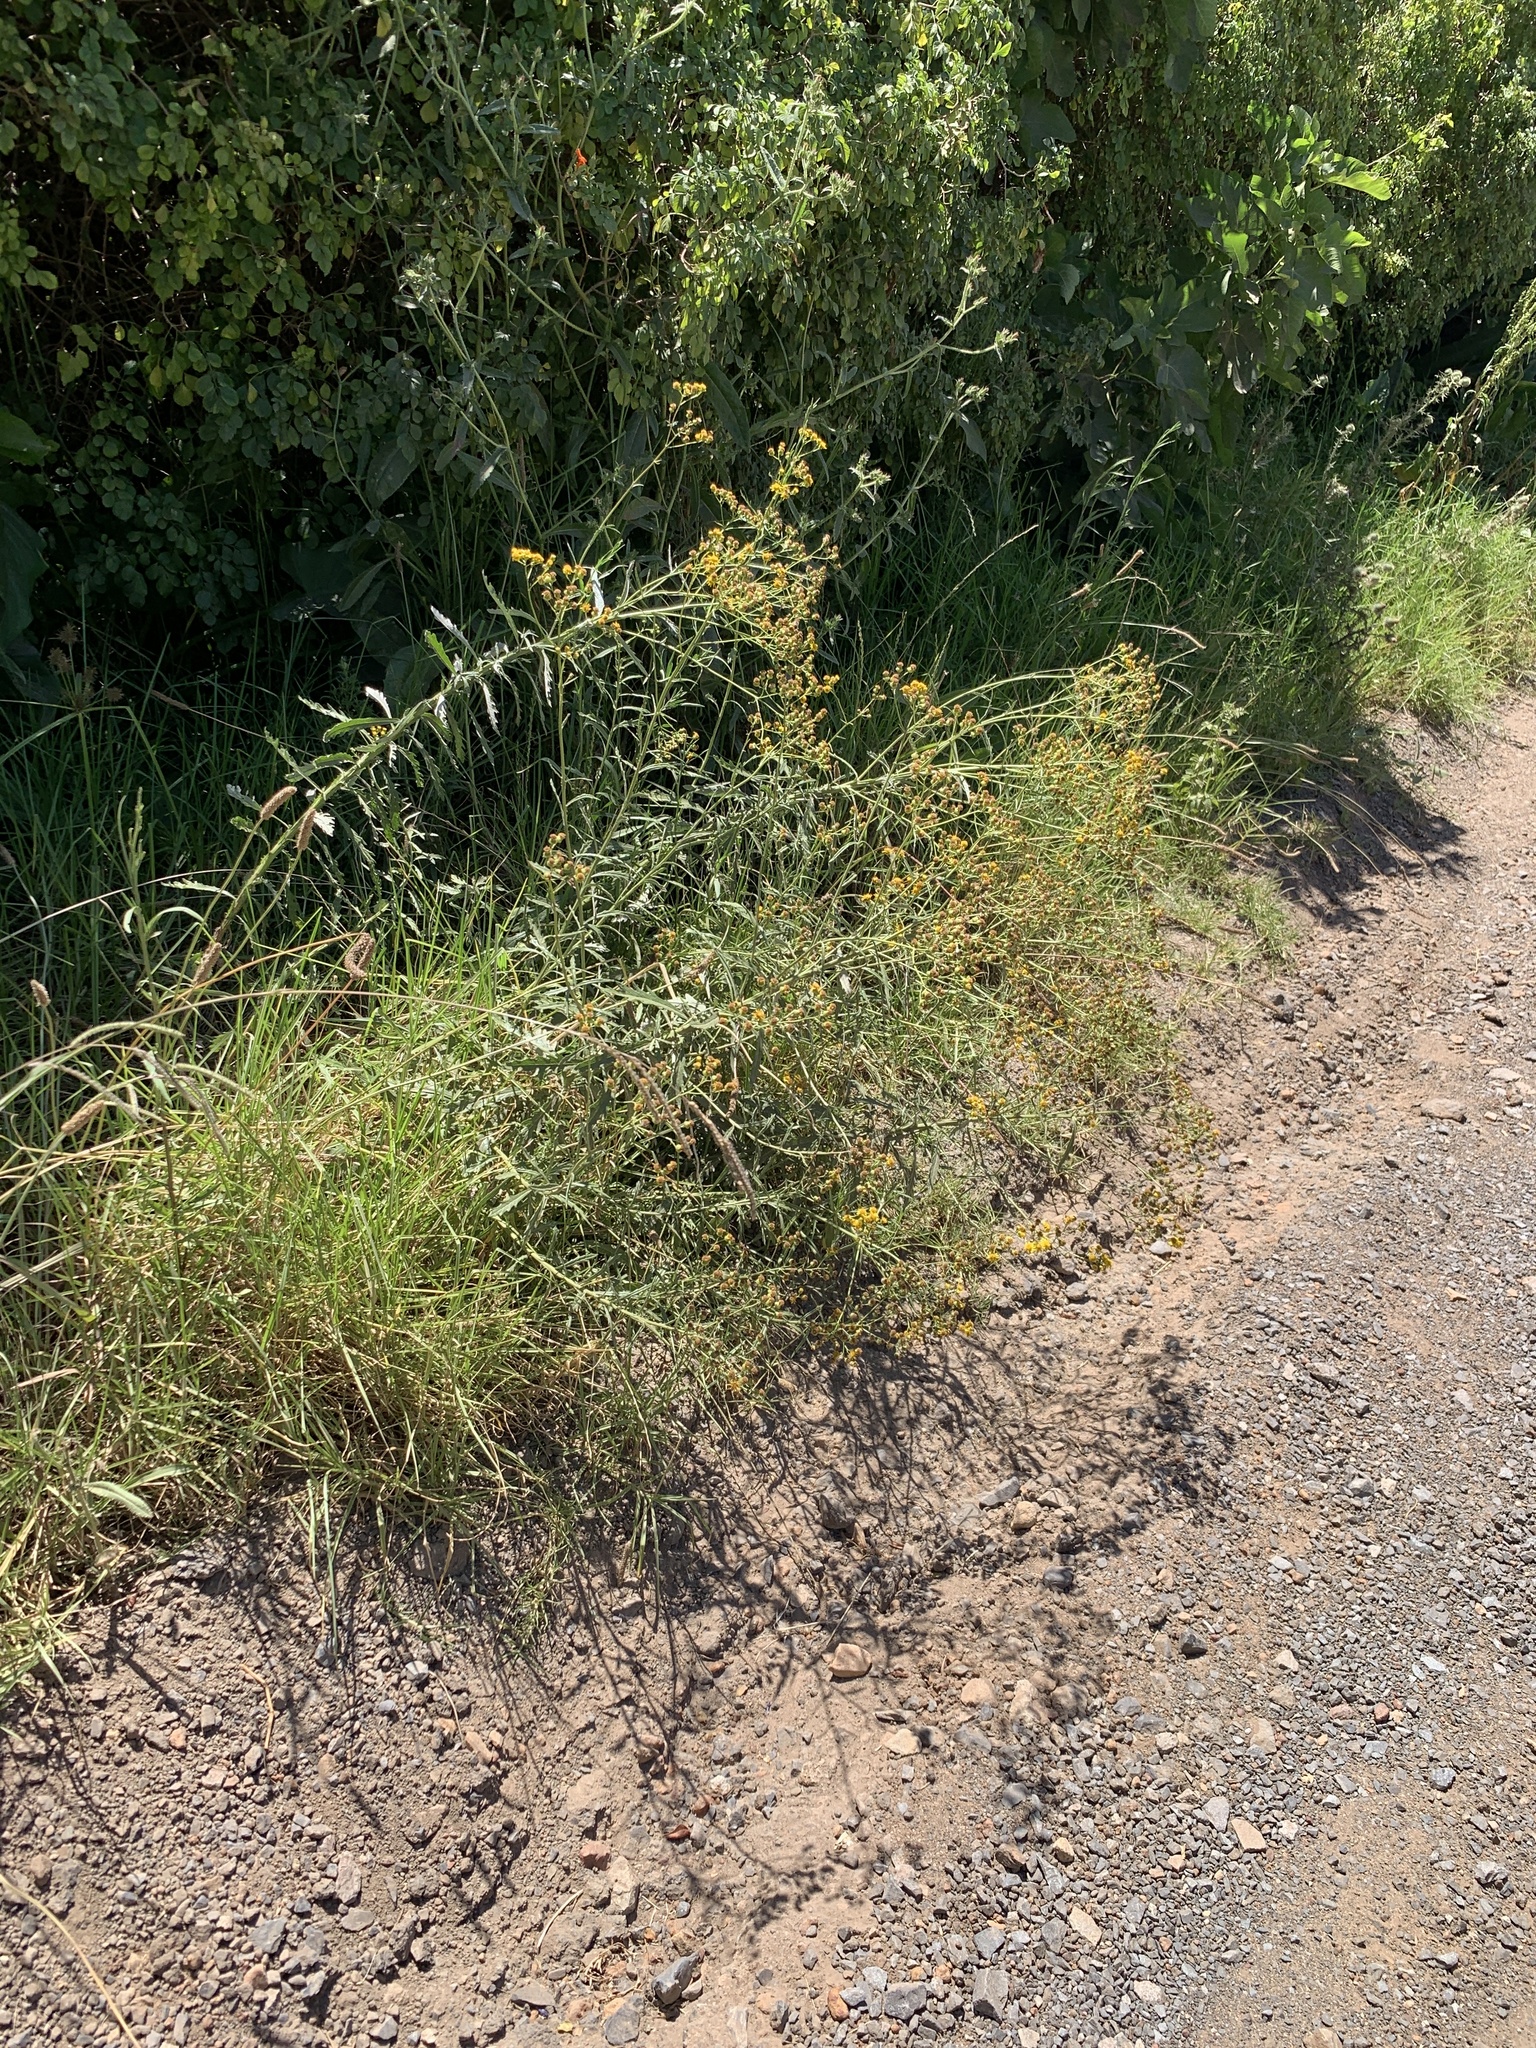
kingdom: Plantae
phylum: Tracheophyta
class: Magnoliopsida
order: Asterales
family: Asteraceae
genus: Senecio
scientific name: Senecio pterophorus
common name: Shoddy ragwort
